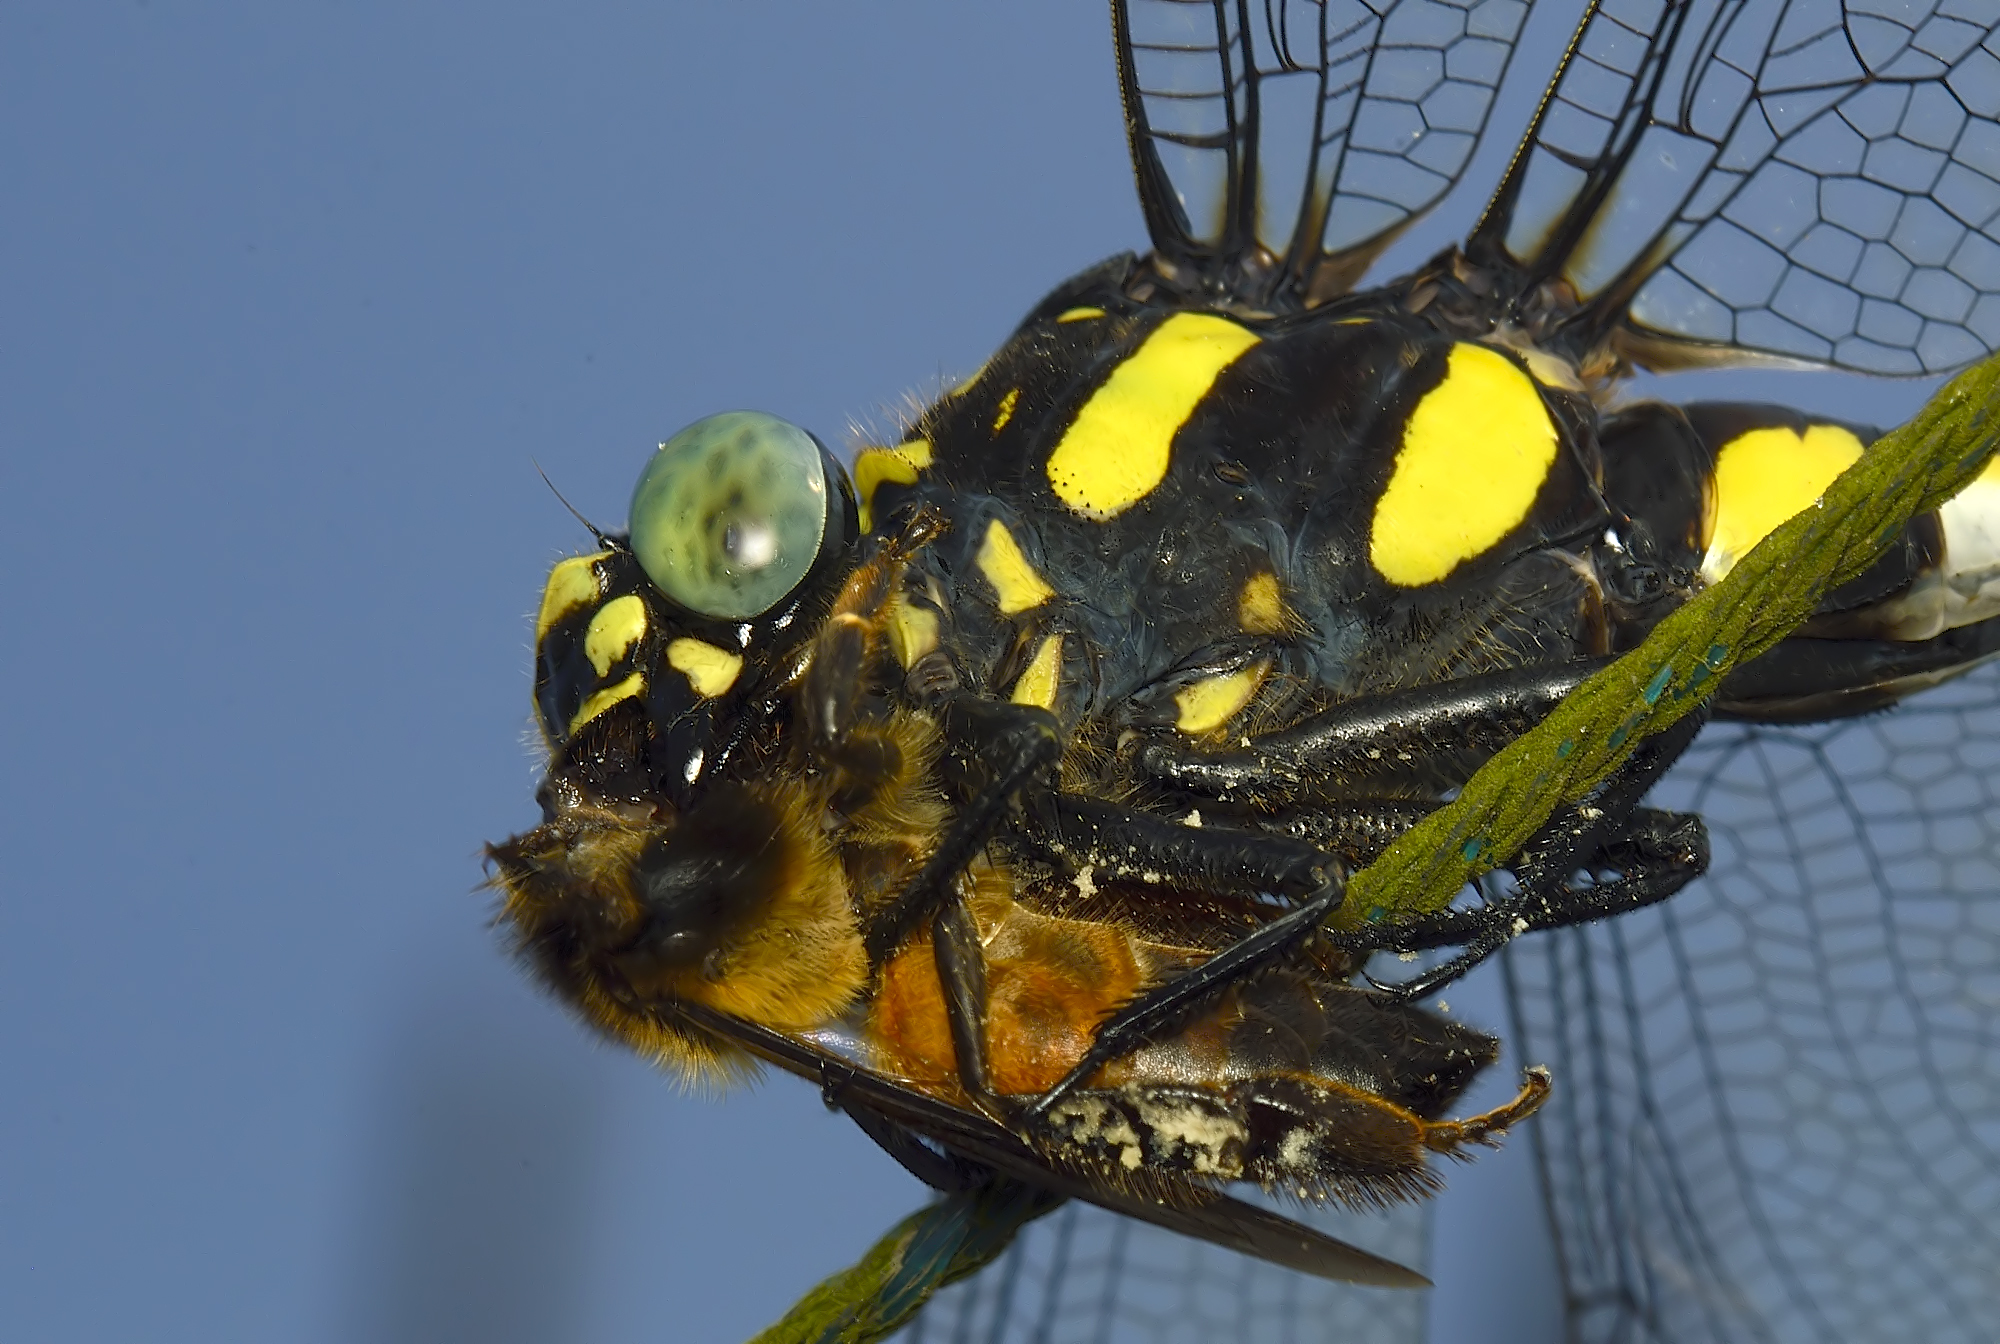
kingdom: Animalia
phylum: Arthropoda
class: Insecta
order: Odonata
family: Gomphidae
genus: Ictinogomphus
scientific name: Ictinogomphus rapax
